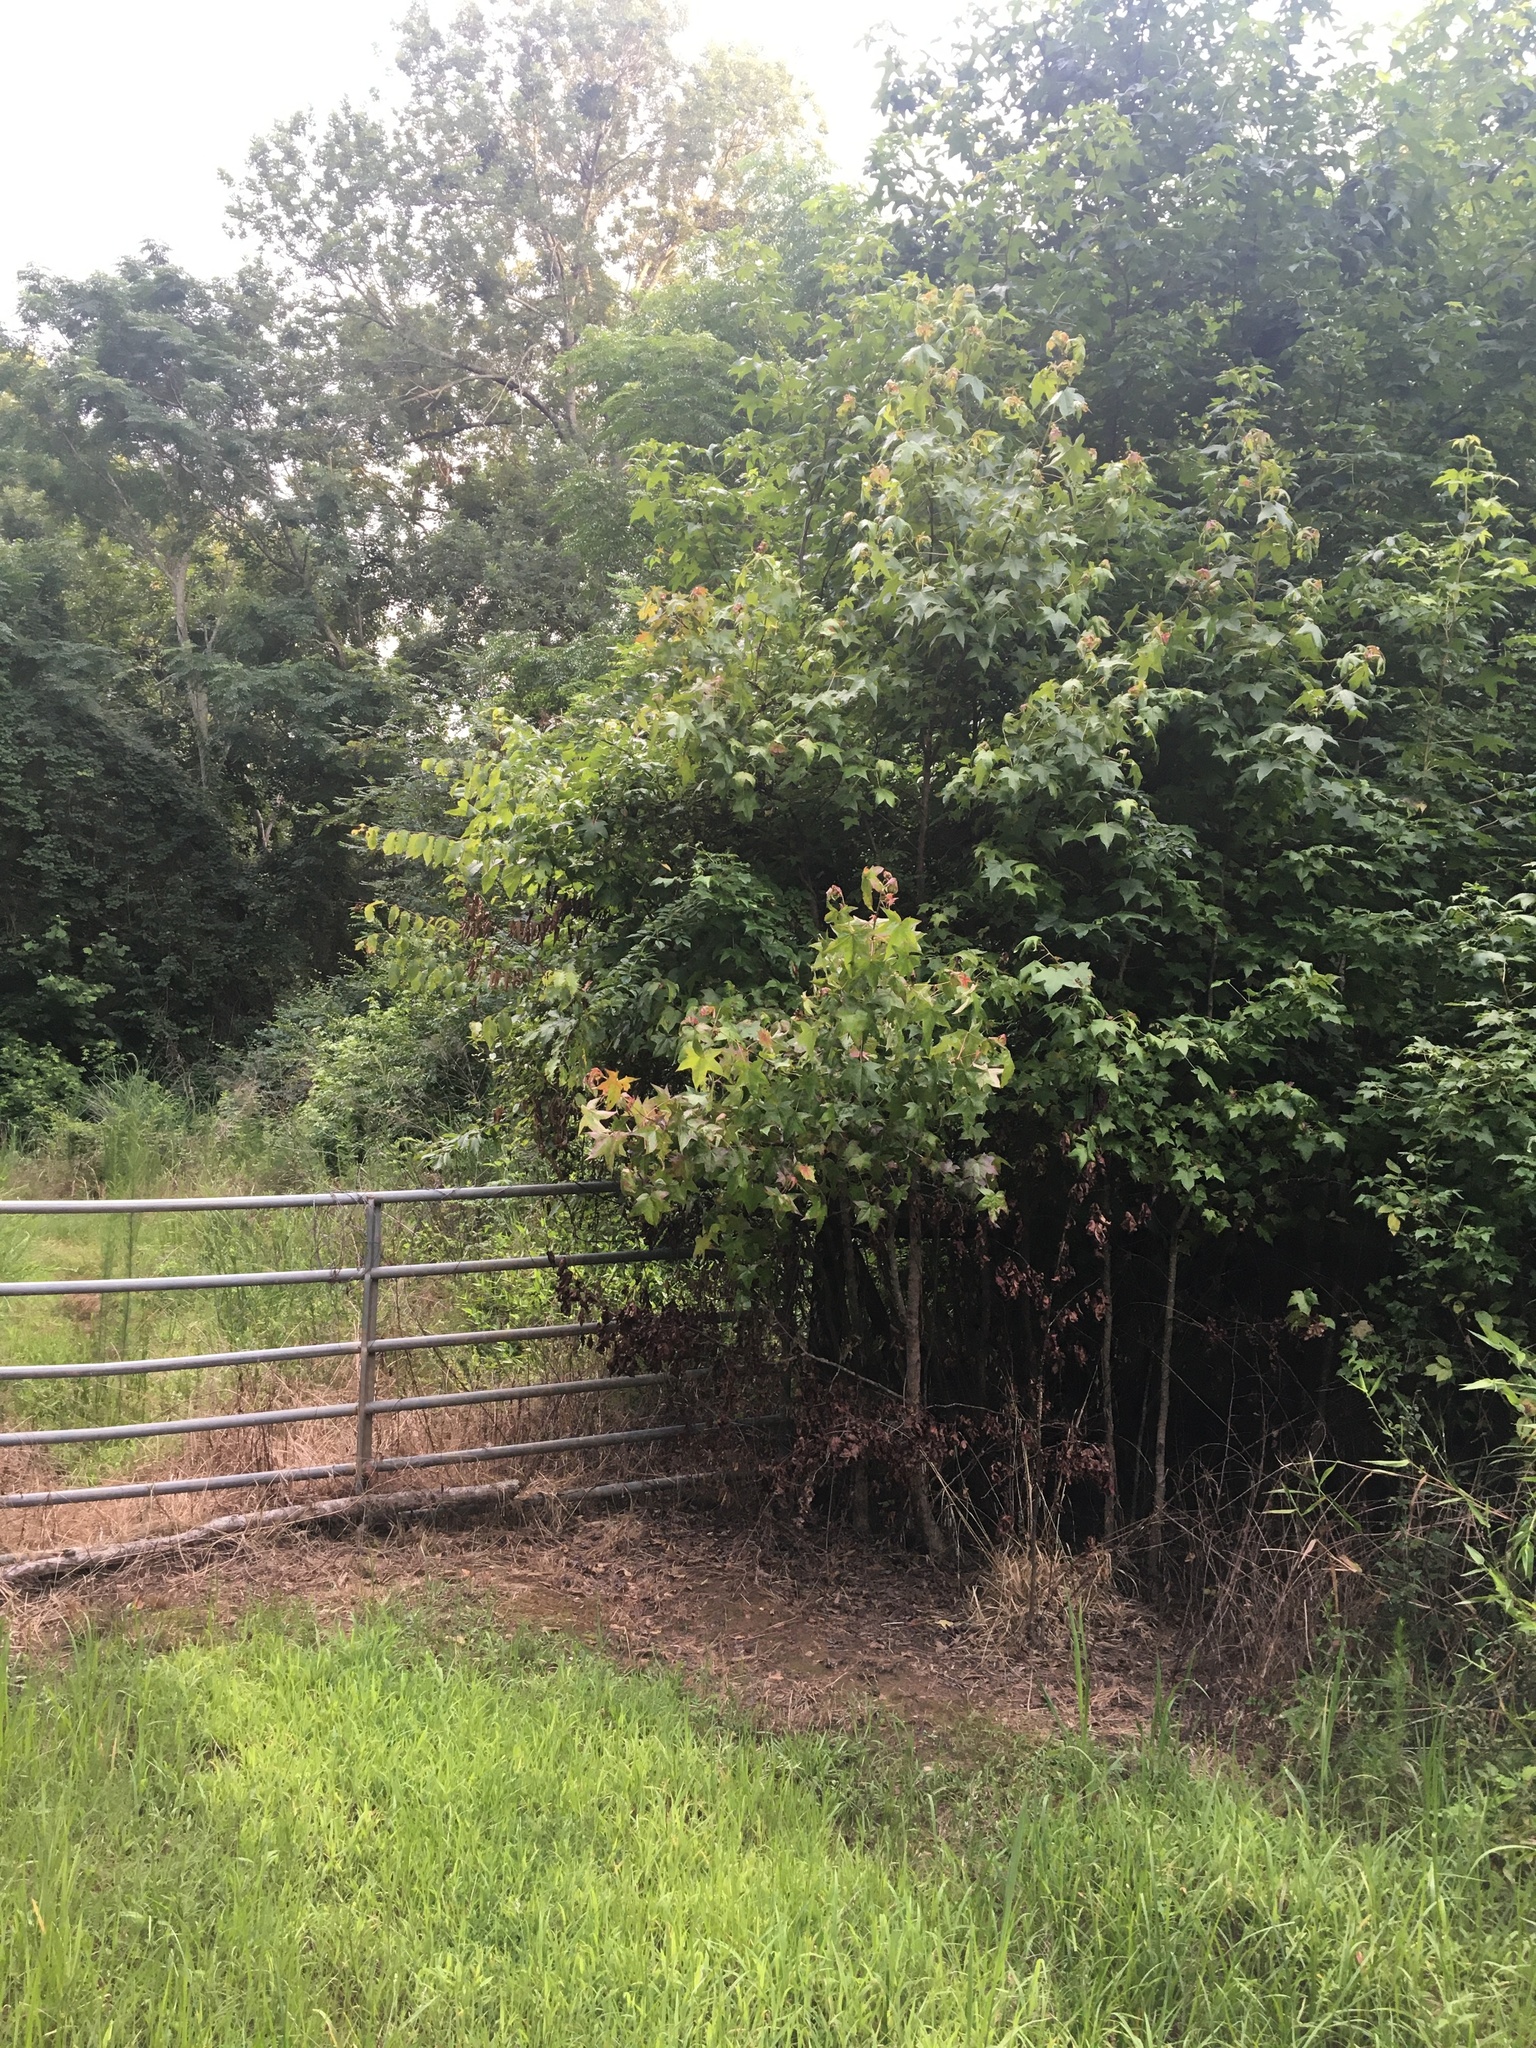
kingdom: Animalia
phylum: Chordata
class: Aves
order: Passeriformes
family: Troglodytidae
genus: Troglodytes
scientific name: Troglodytes aedon
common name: House wren
